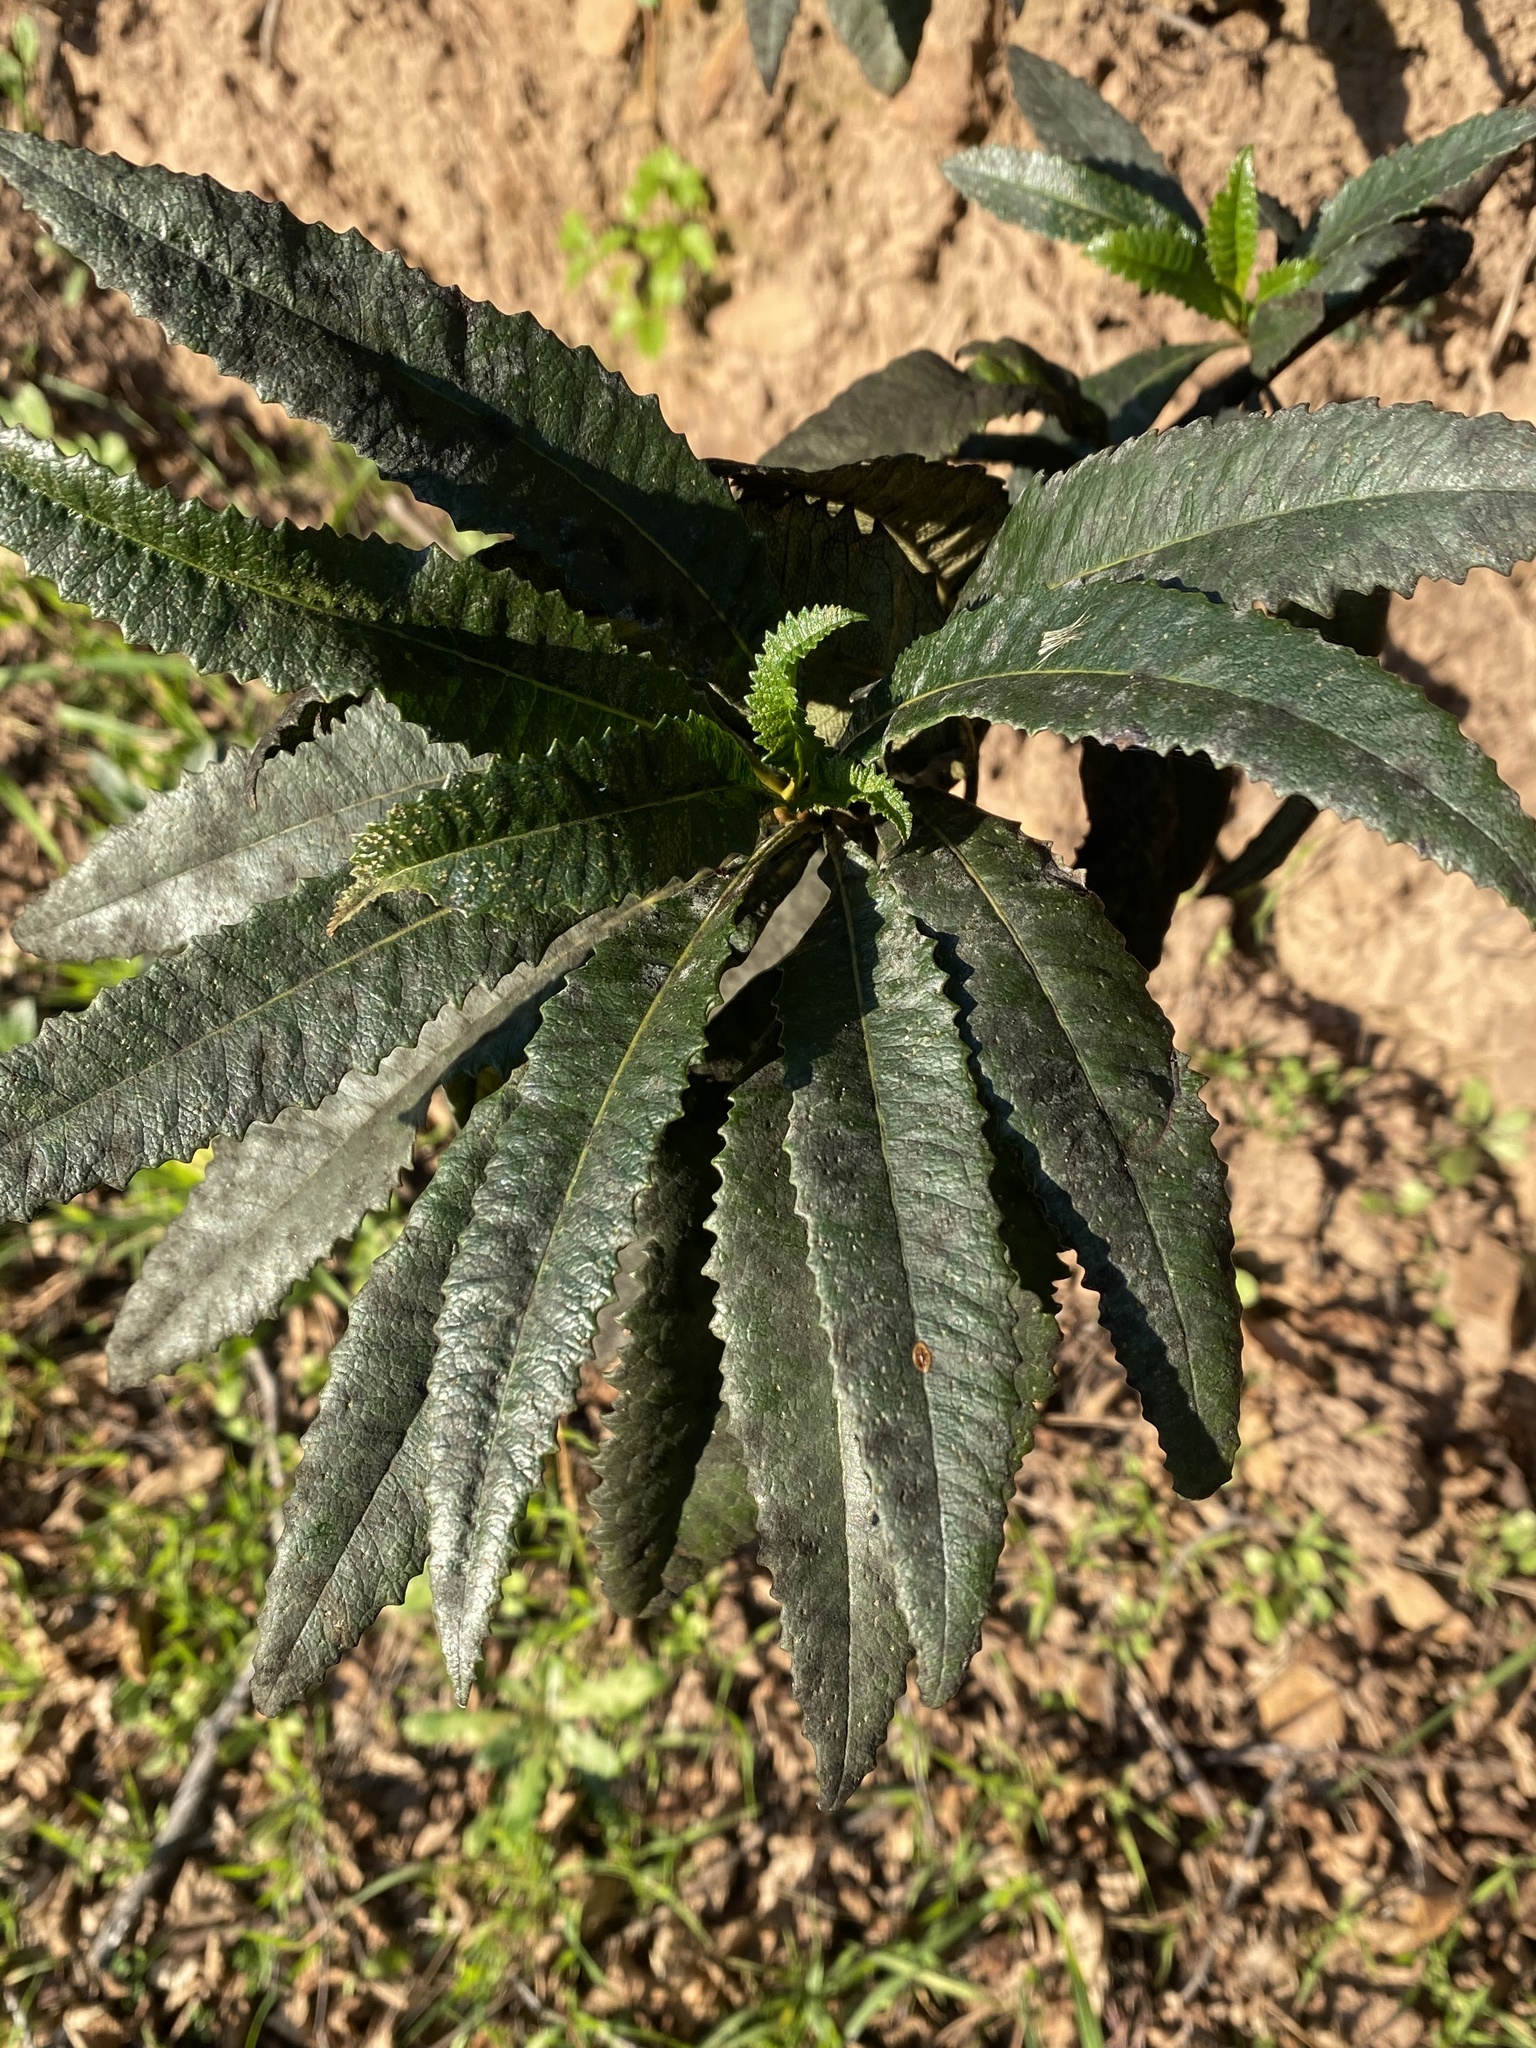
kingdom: Plantae
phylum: Tracheophyta
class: Magnoliopsida
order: Boraginales
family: Namaceae
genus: Eriodictyon
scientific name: Eriodictyon californicum
